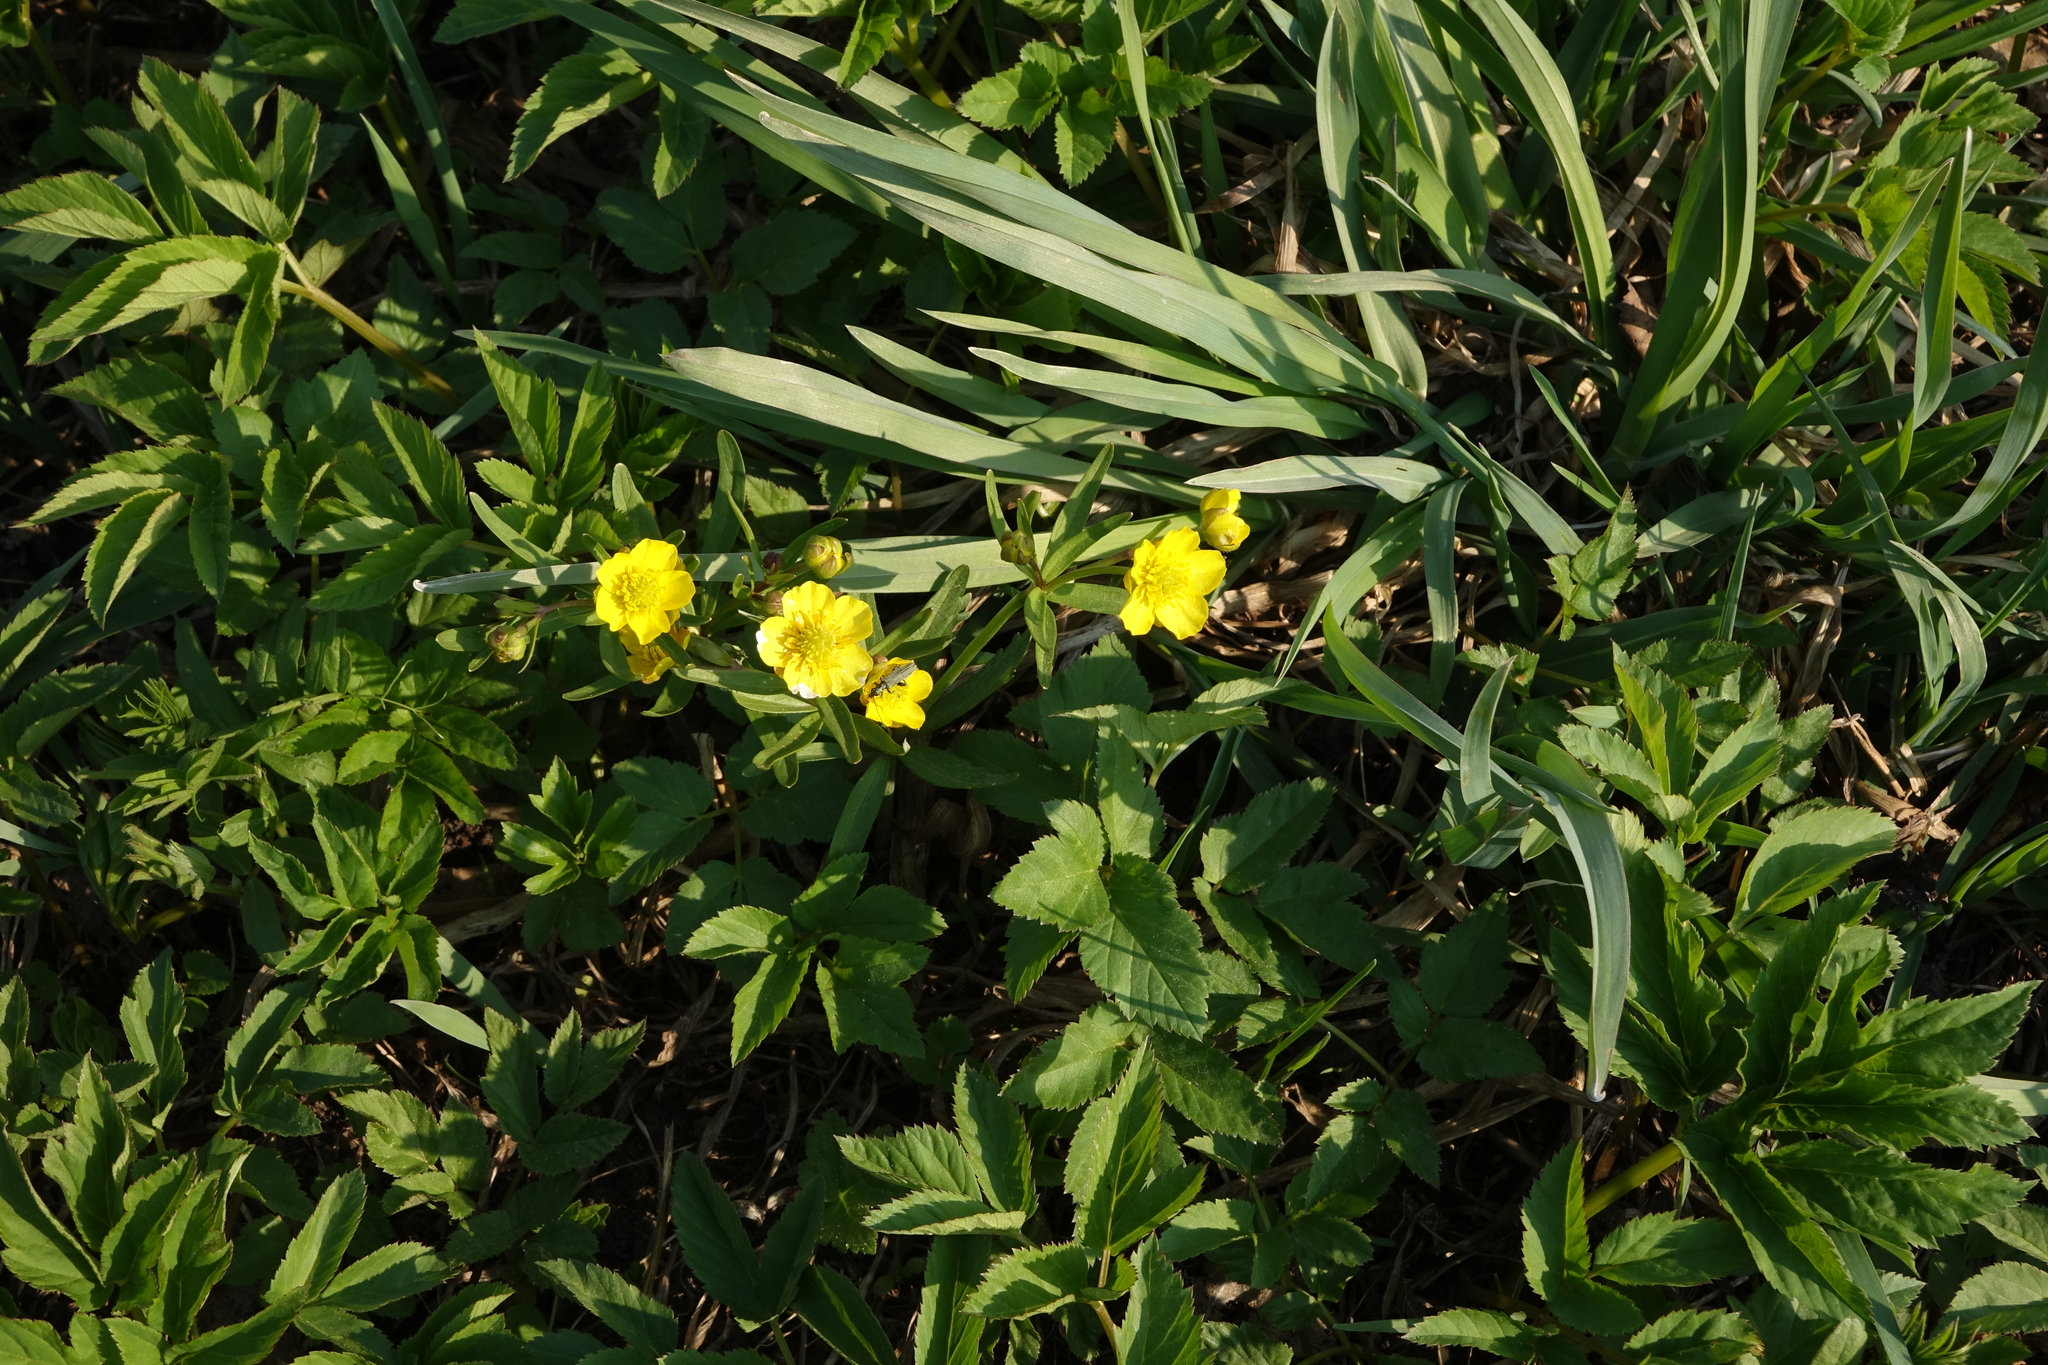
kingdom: Plantae
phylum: Tracheophyta
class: Magnoliopsida
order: Ranunculales
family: Ranunculaceae
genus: Ranunculus
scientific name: Ranunculus monophyllus
